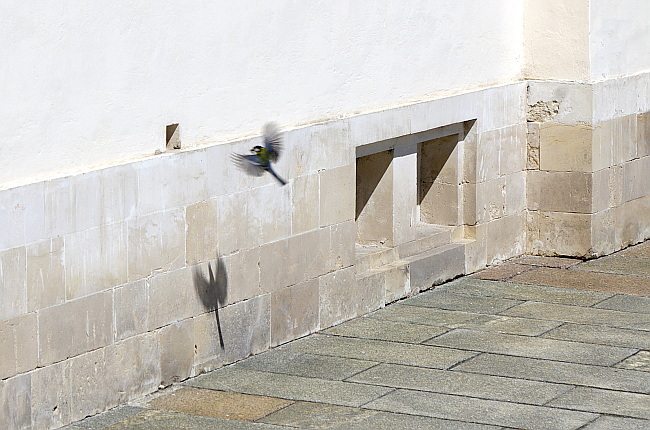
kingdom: Animalia
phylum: Chordata
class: Aves
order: Passeriformes
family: Paridae
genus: Parus
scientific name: Parus major
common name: Great tit
